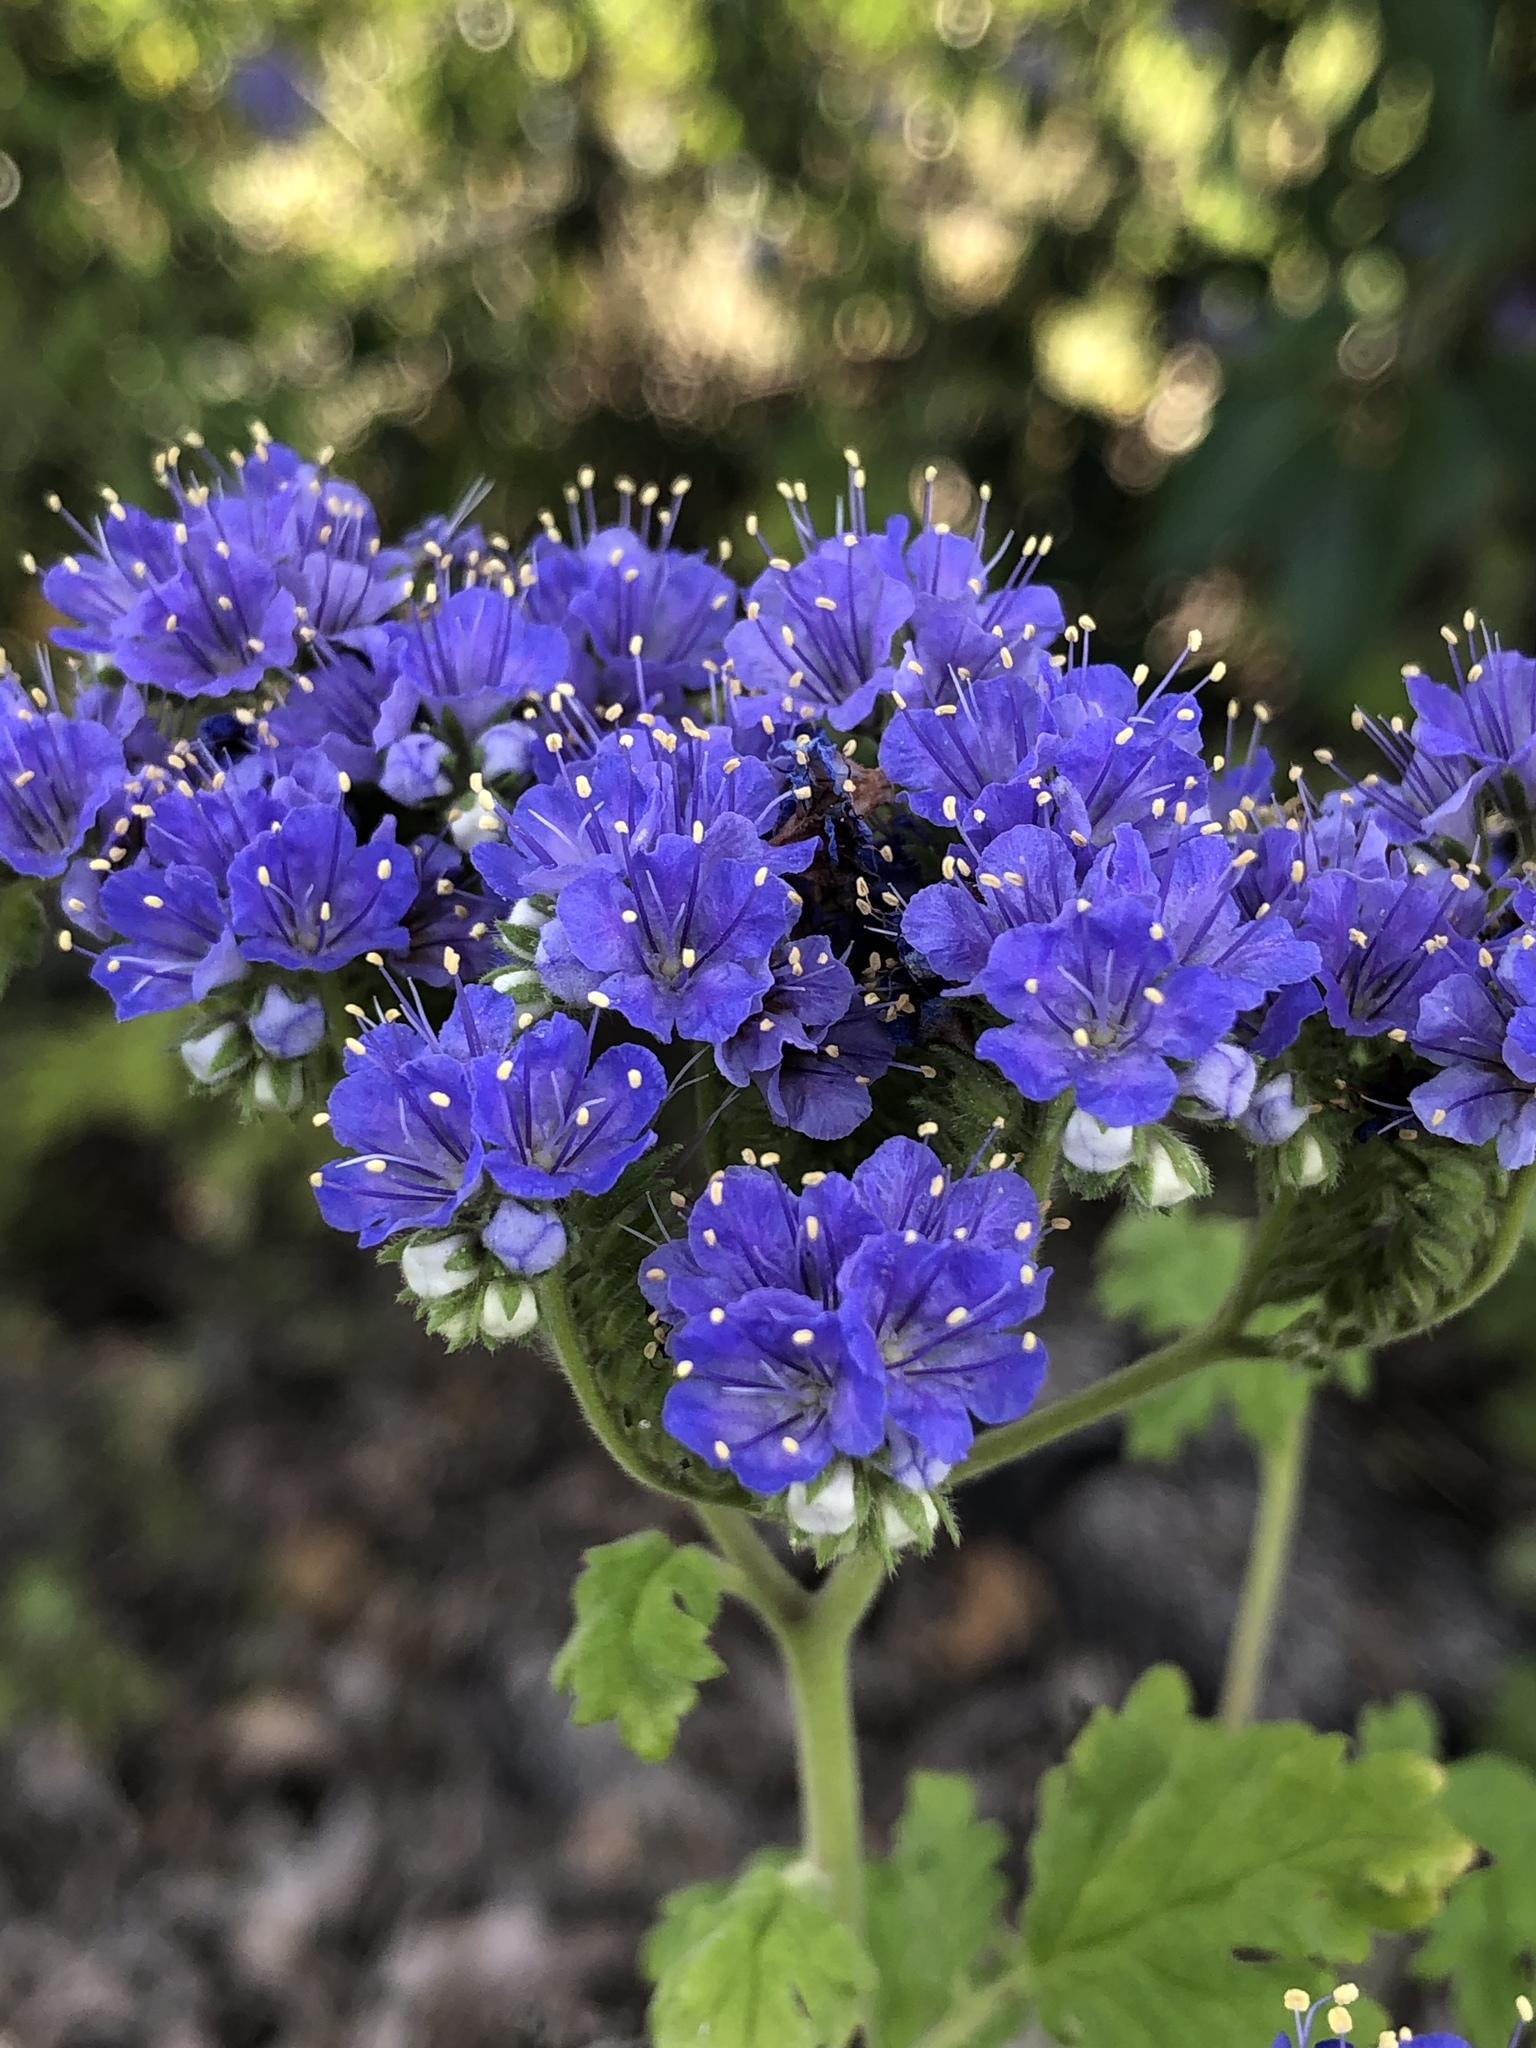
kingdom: Plantae
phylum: Tracheophyta
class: Magnoliopsida
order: Boraginales
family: Hydrophyllaceae
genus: Phacelia
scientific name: Phacelia congesta
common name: Blue curls
